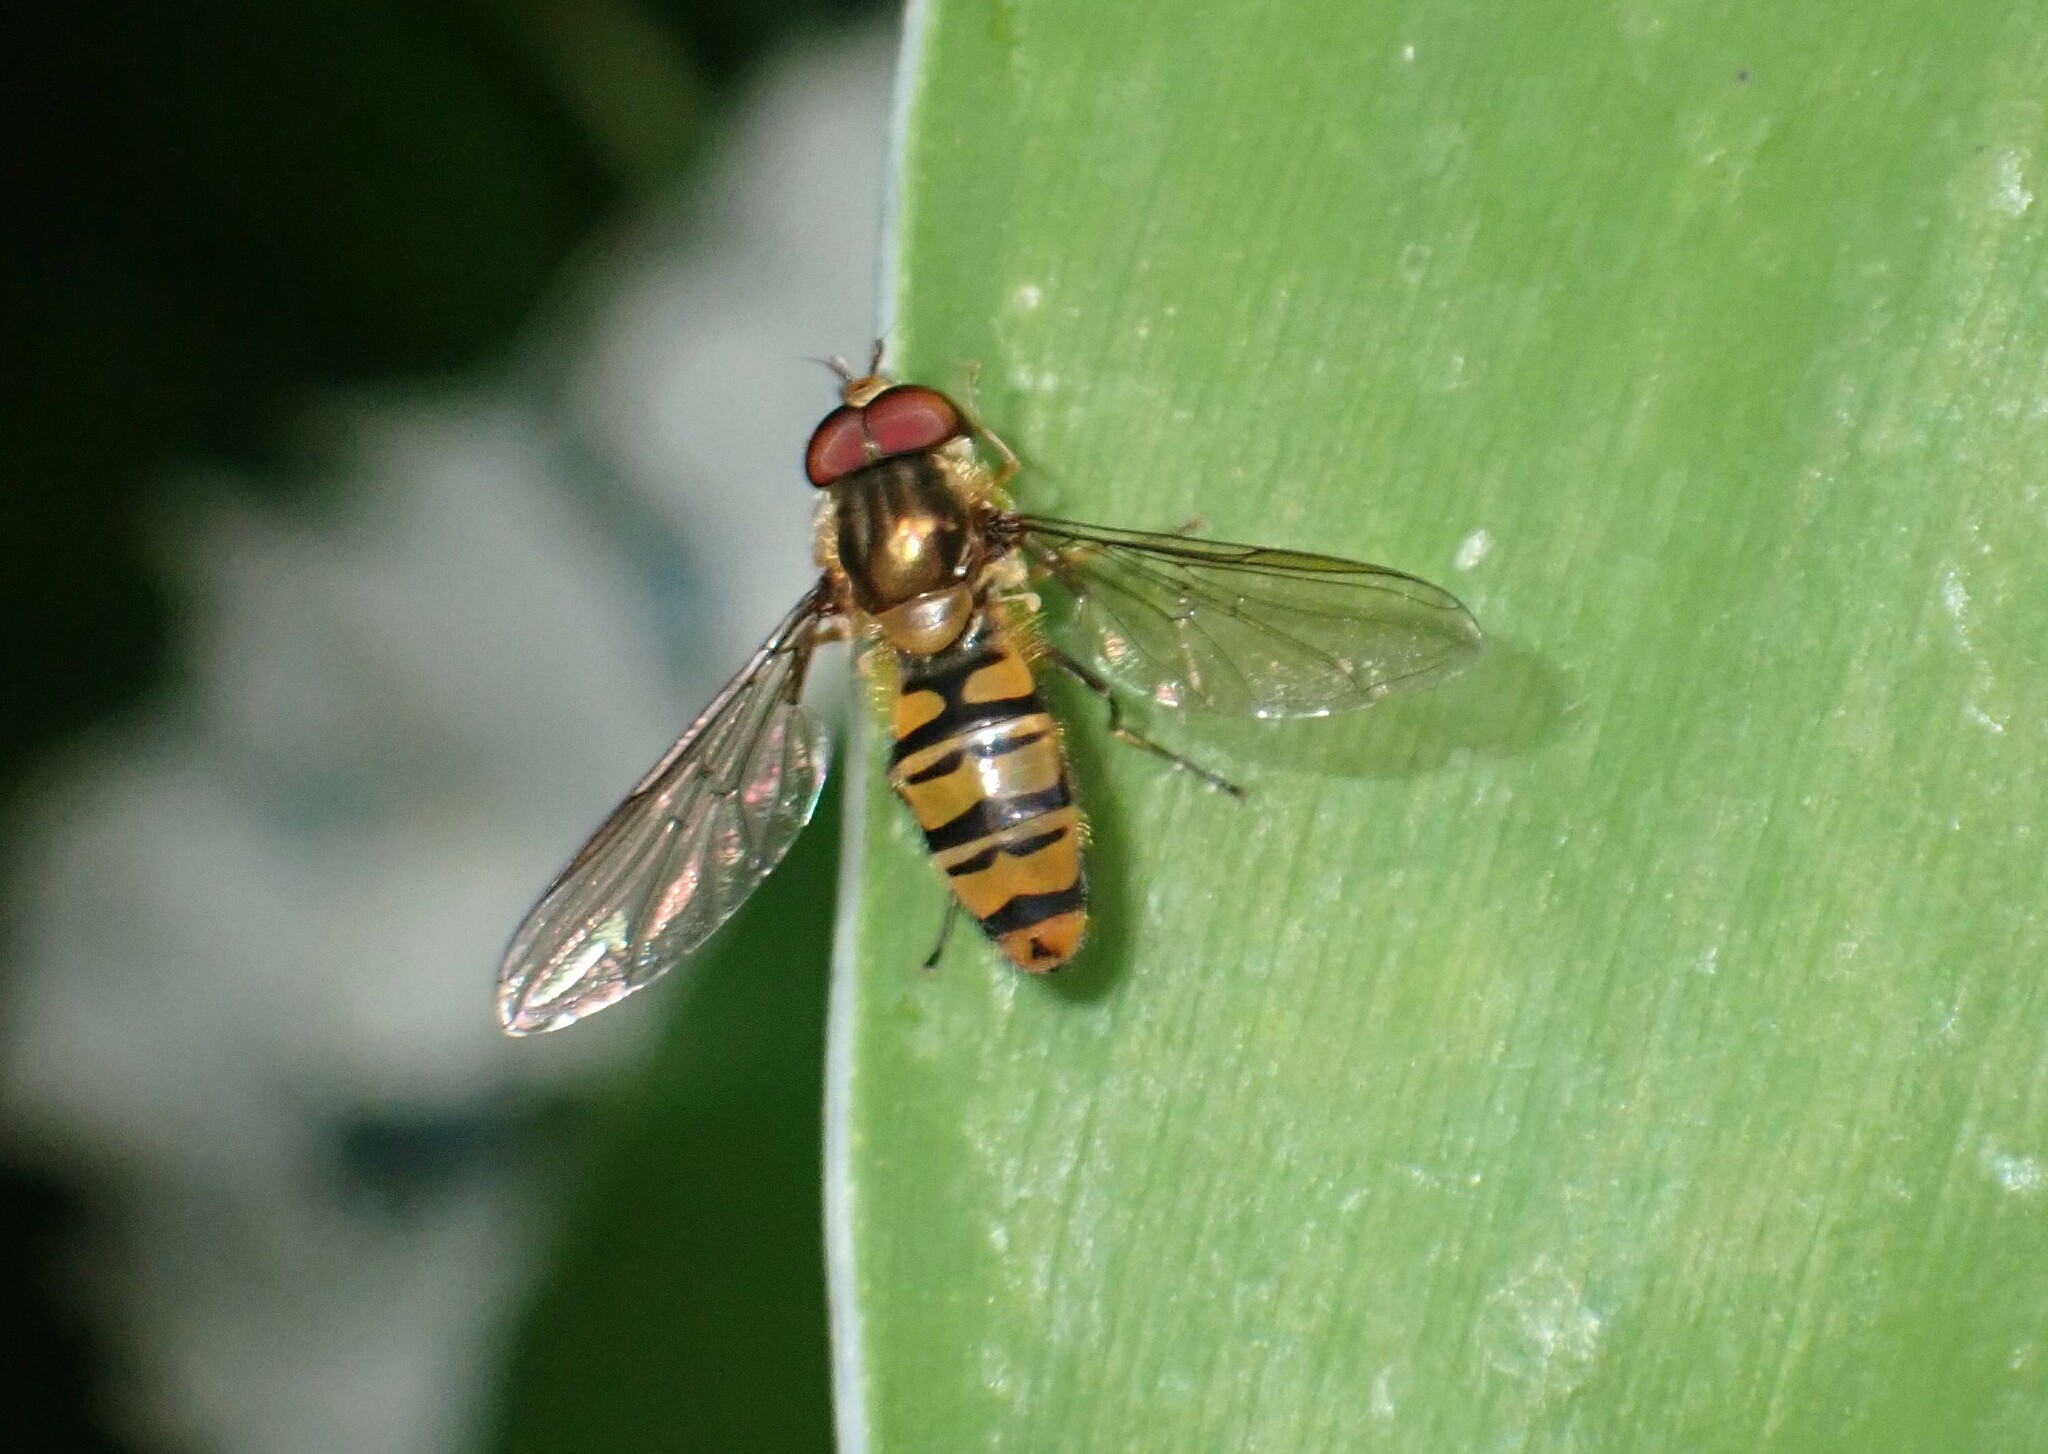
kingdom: Animalia
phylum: Arthropoda
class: Insecta
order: Diptera
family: Syrphidae
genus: Episyrphus
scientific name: Episyrphus balteatus
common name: Marmalade hoverfly
